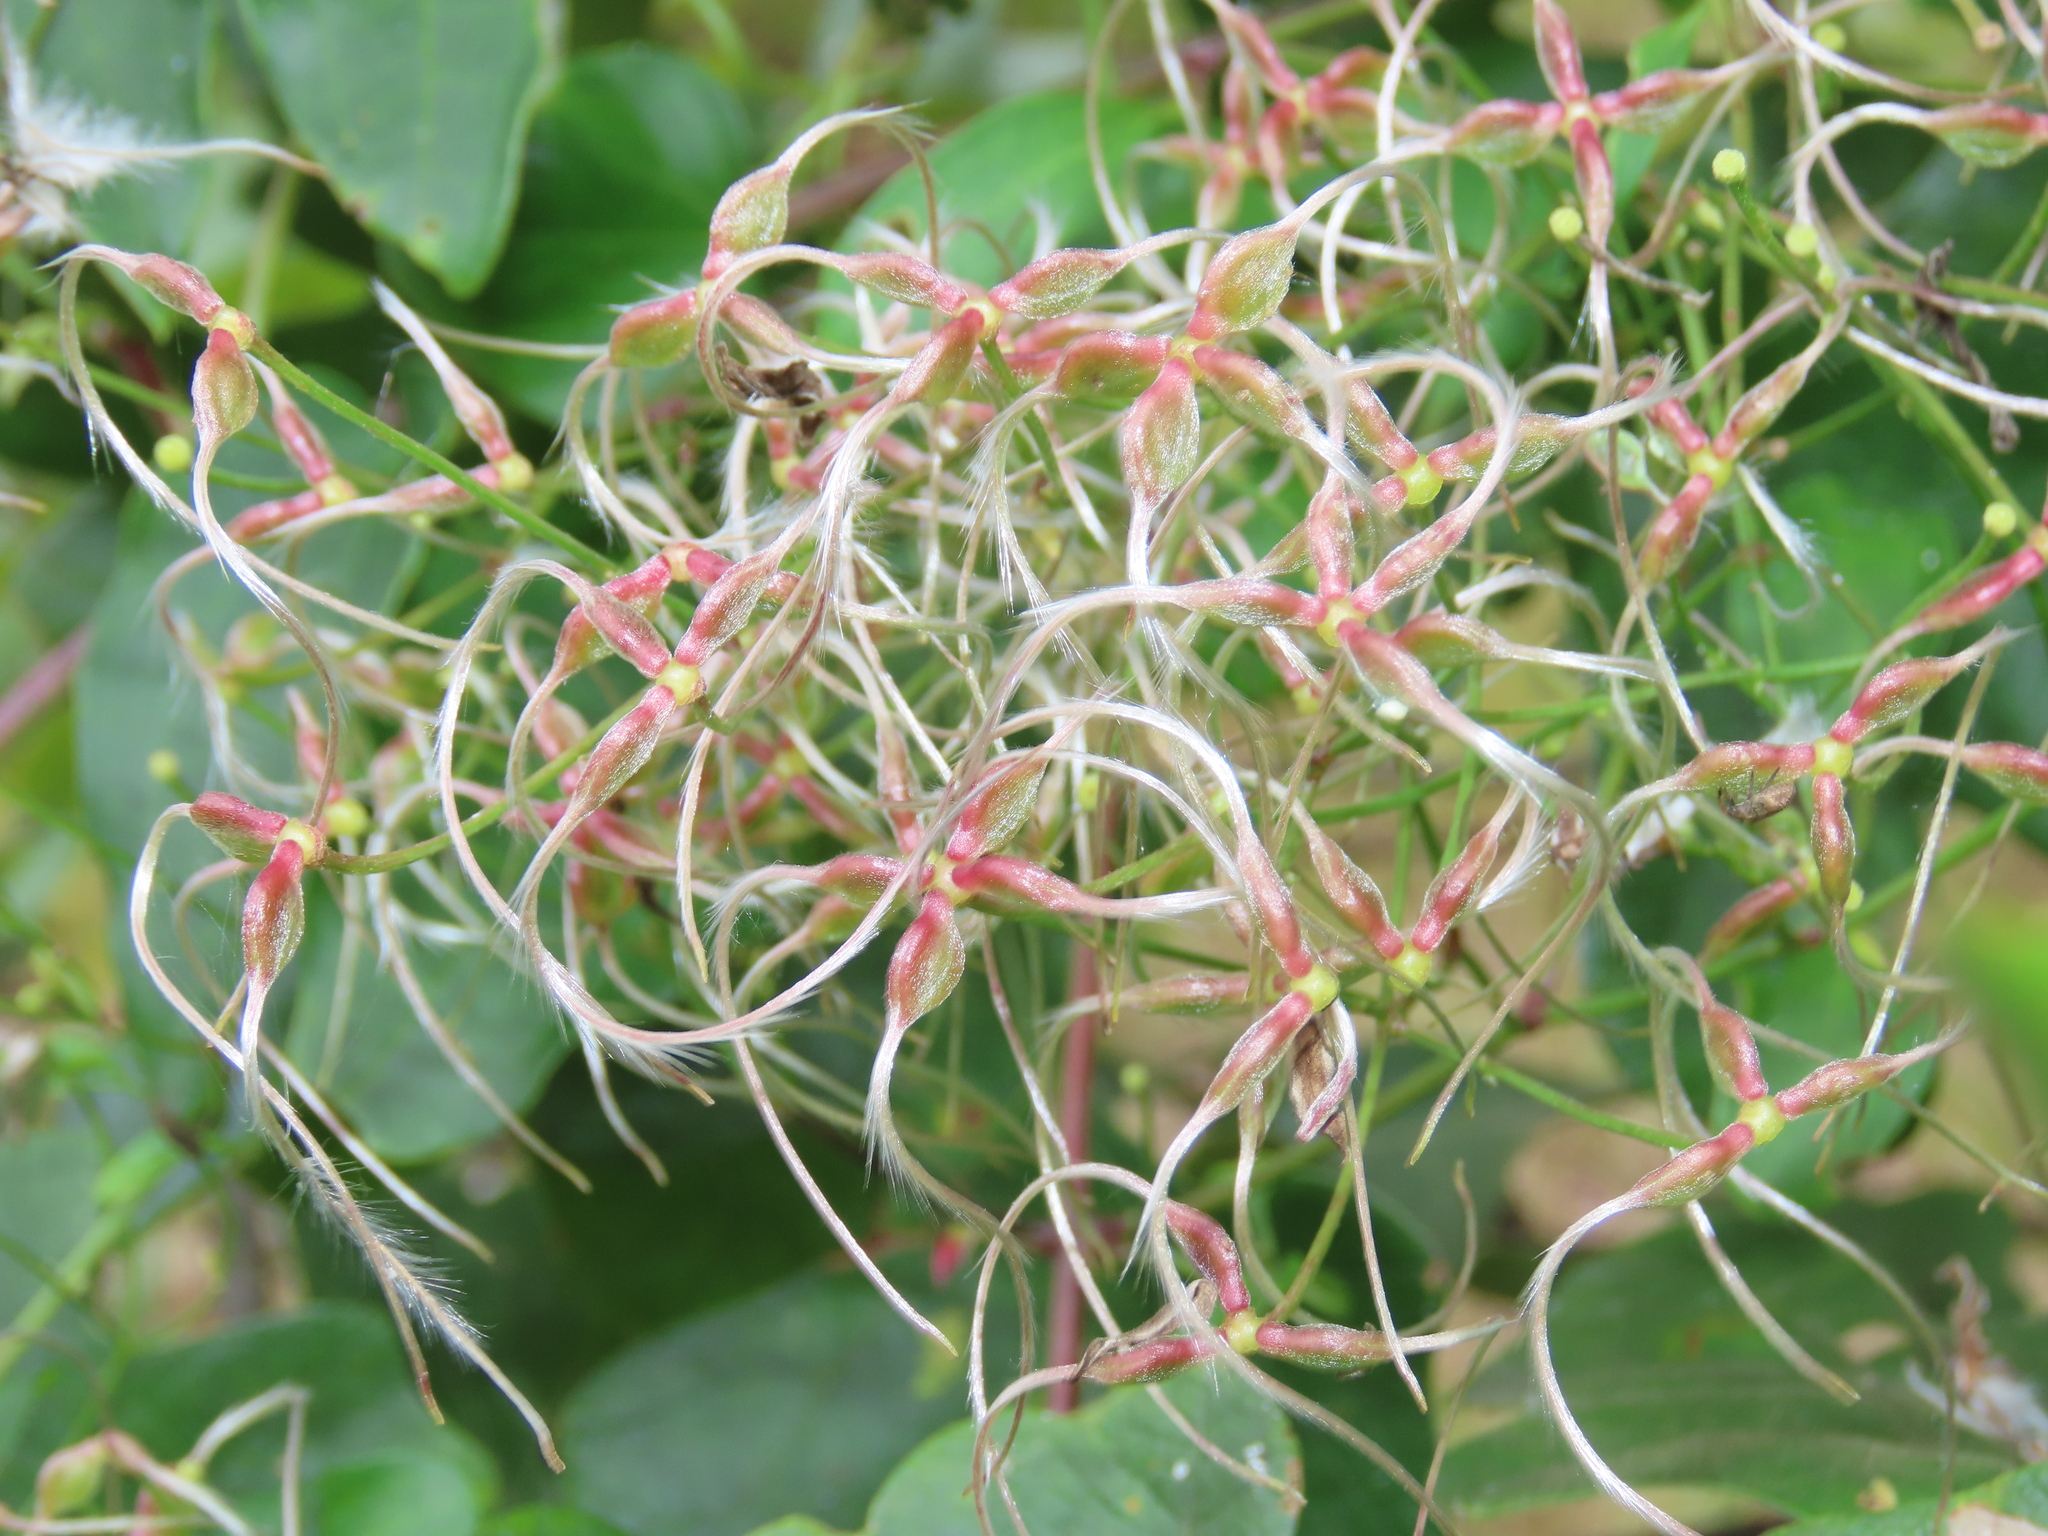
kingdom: Plantae
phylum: Tracheophyta
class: Magnoliopsida
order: Ranunculales
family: Ranunculaceae
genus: Clematis
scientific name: Clematis terniflora
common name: Sweet autumn clematis
